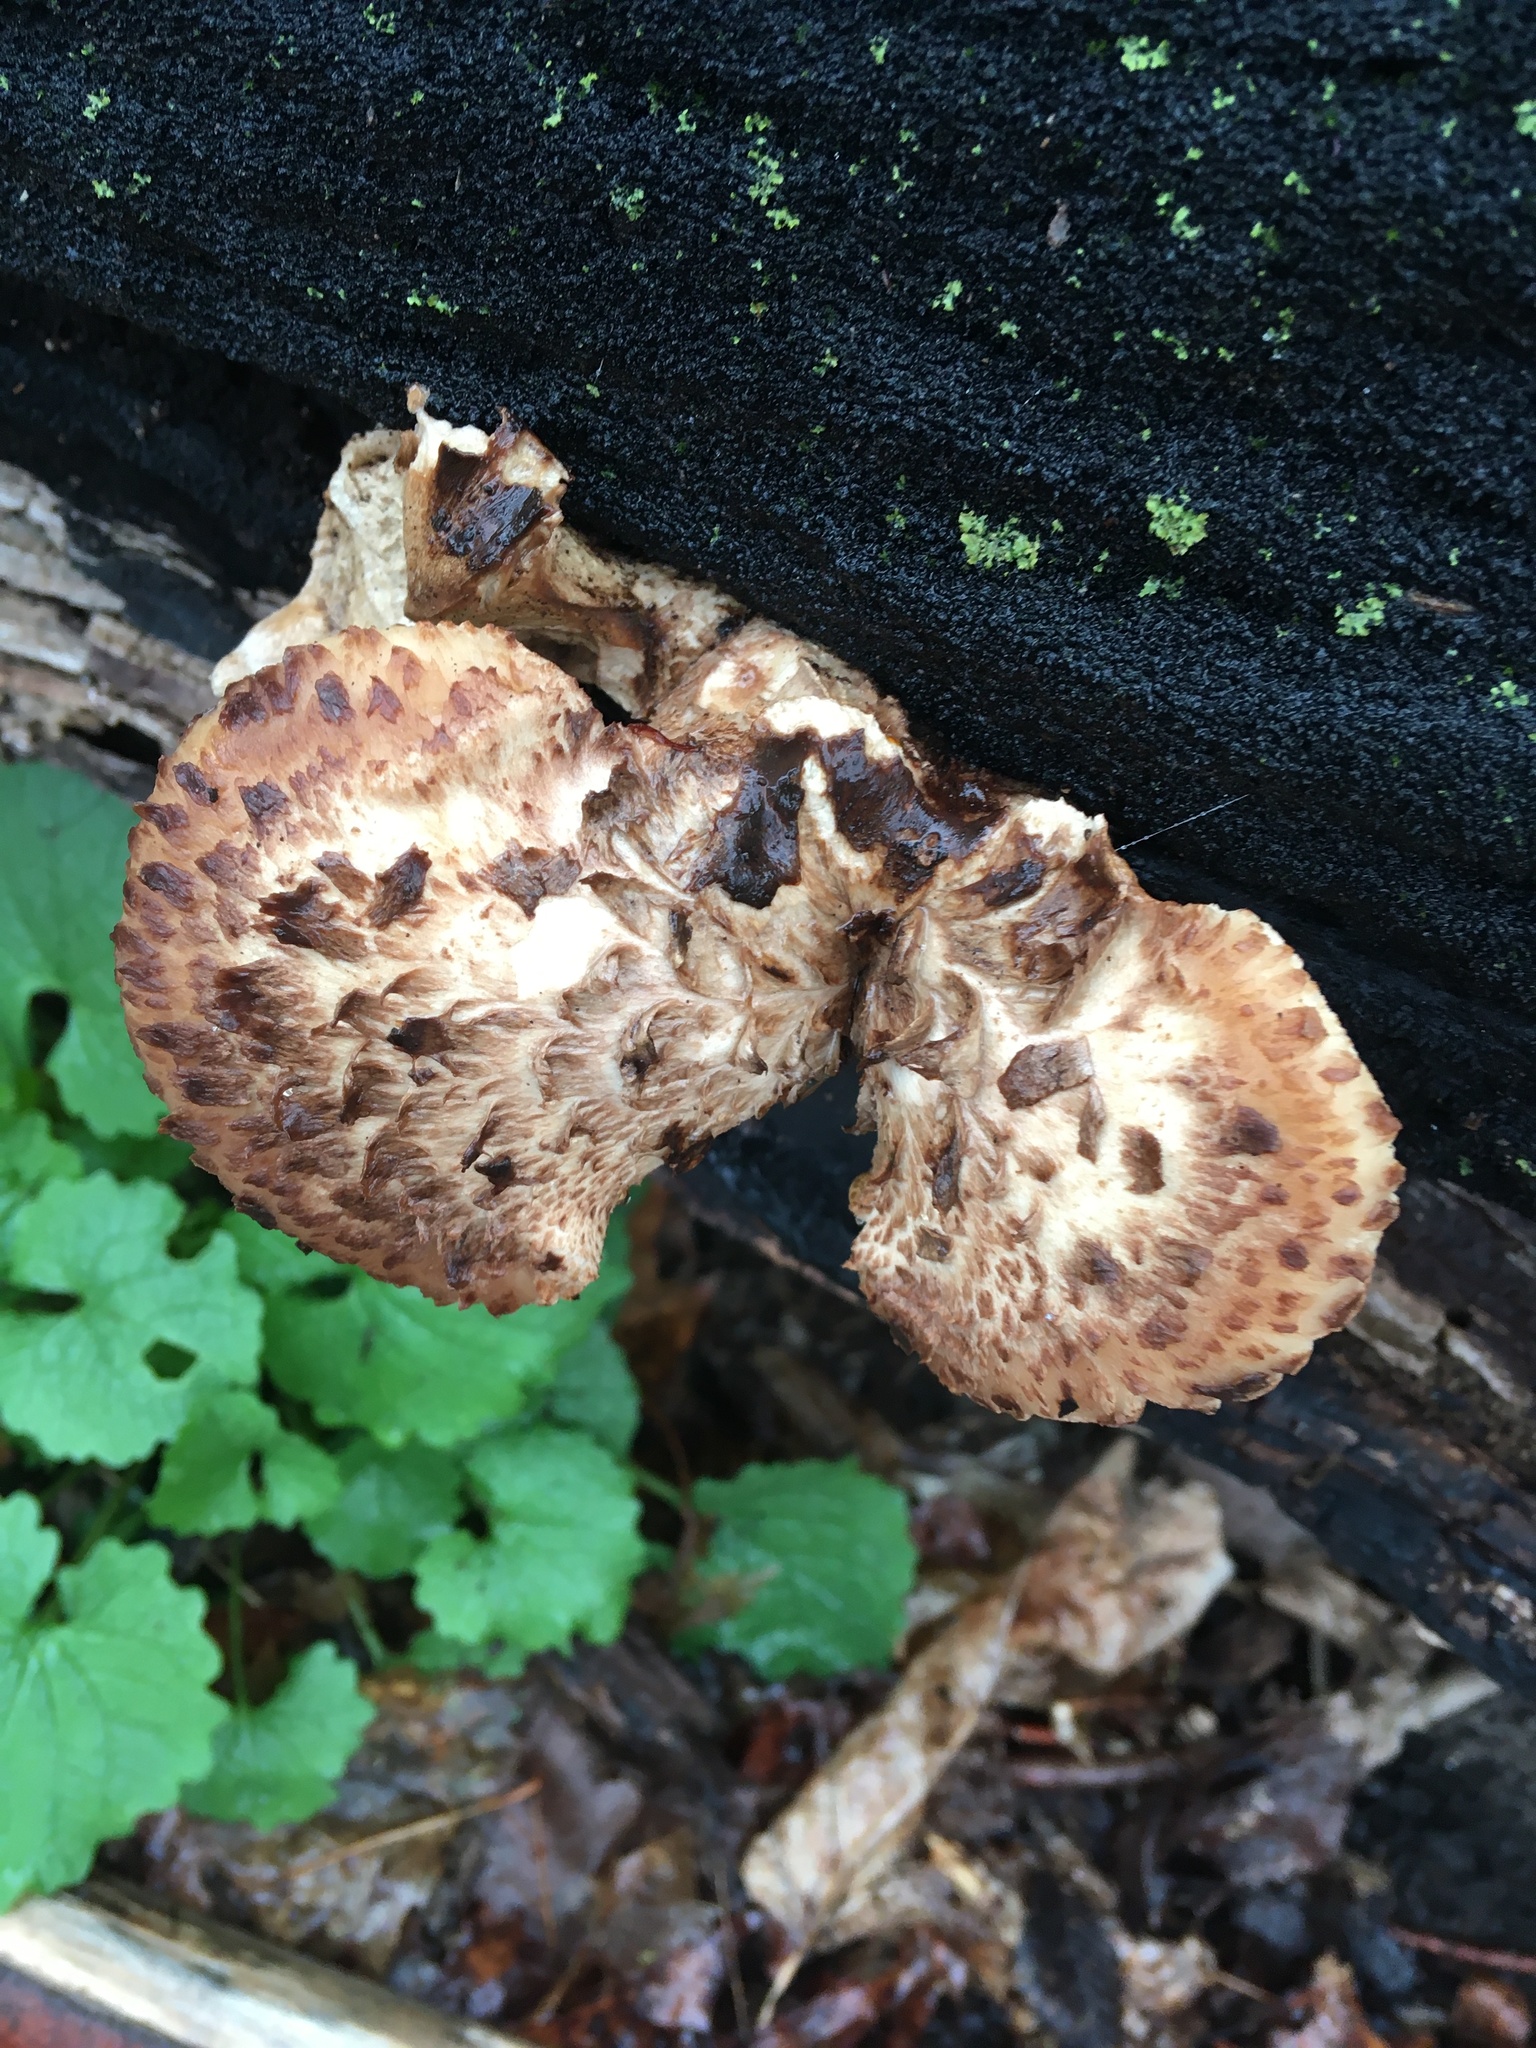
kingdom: Fungi
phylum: Basidiomycota
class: Agaricomycetes
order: Polyporales
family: Polyporaceae
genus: Cerioporus
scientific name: Cerioporus squamosus
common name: Dryad's saddle
